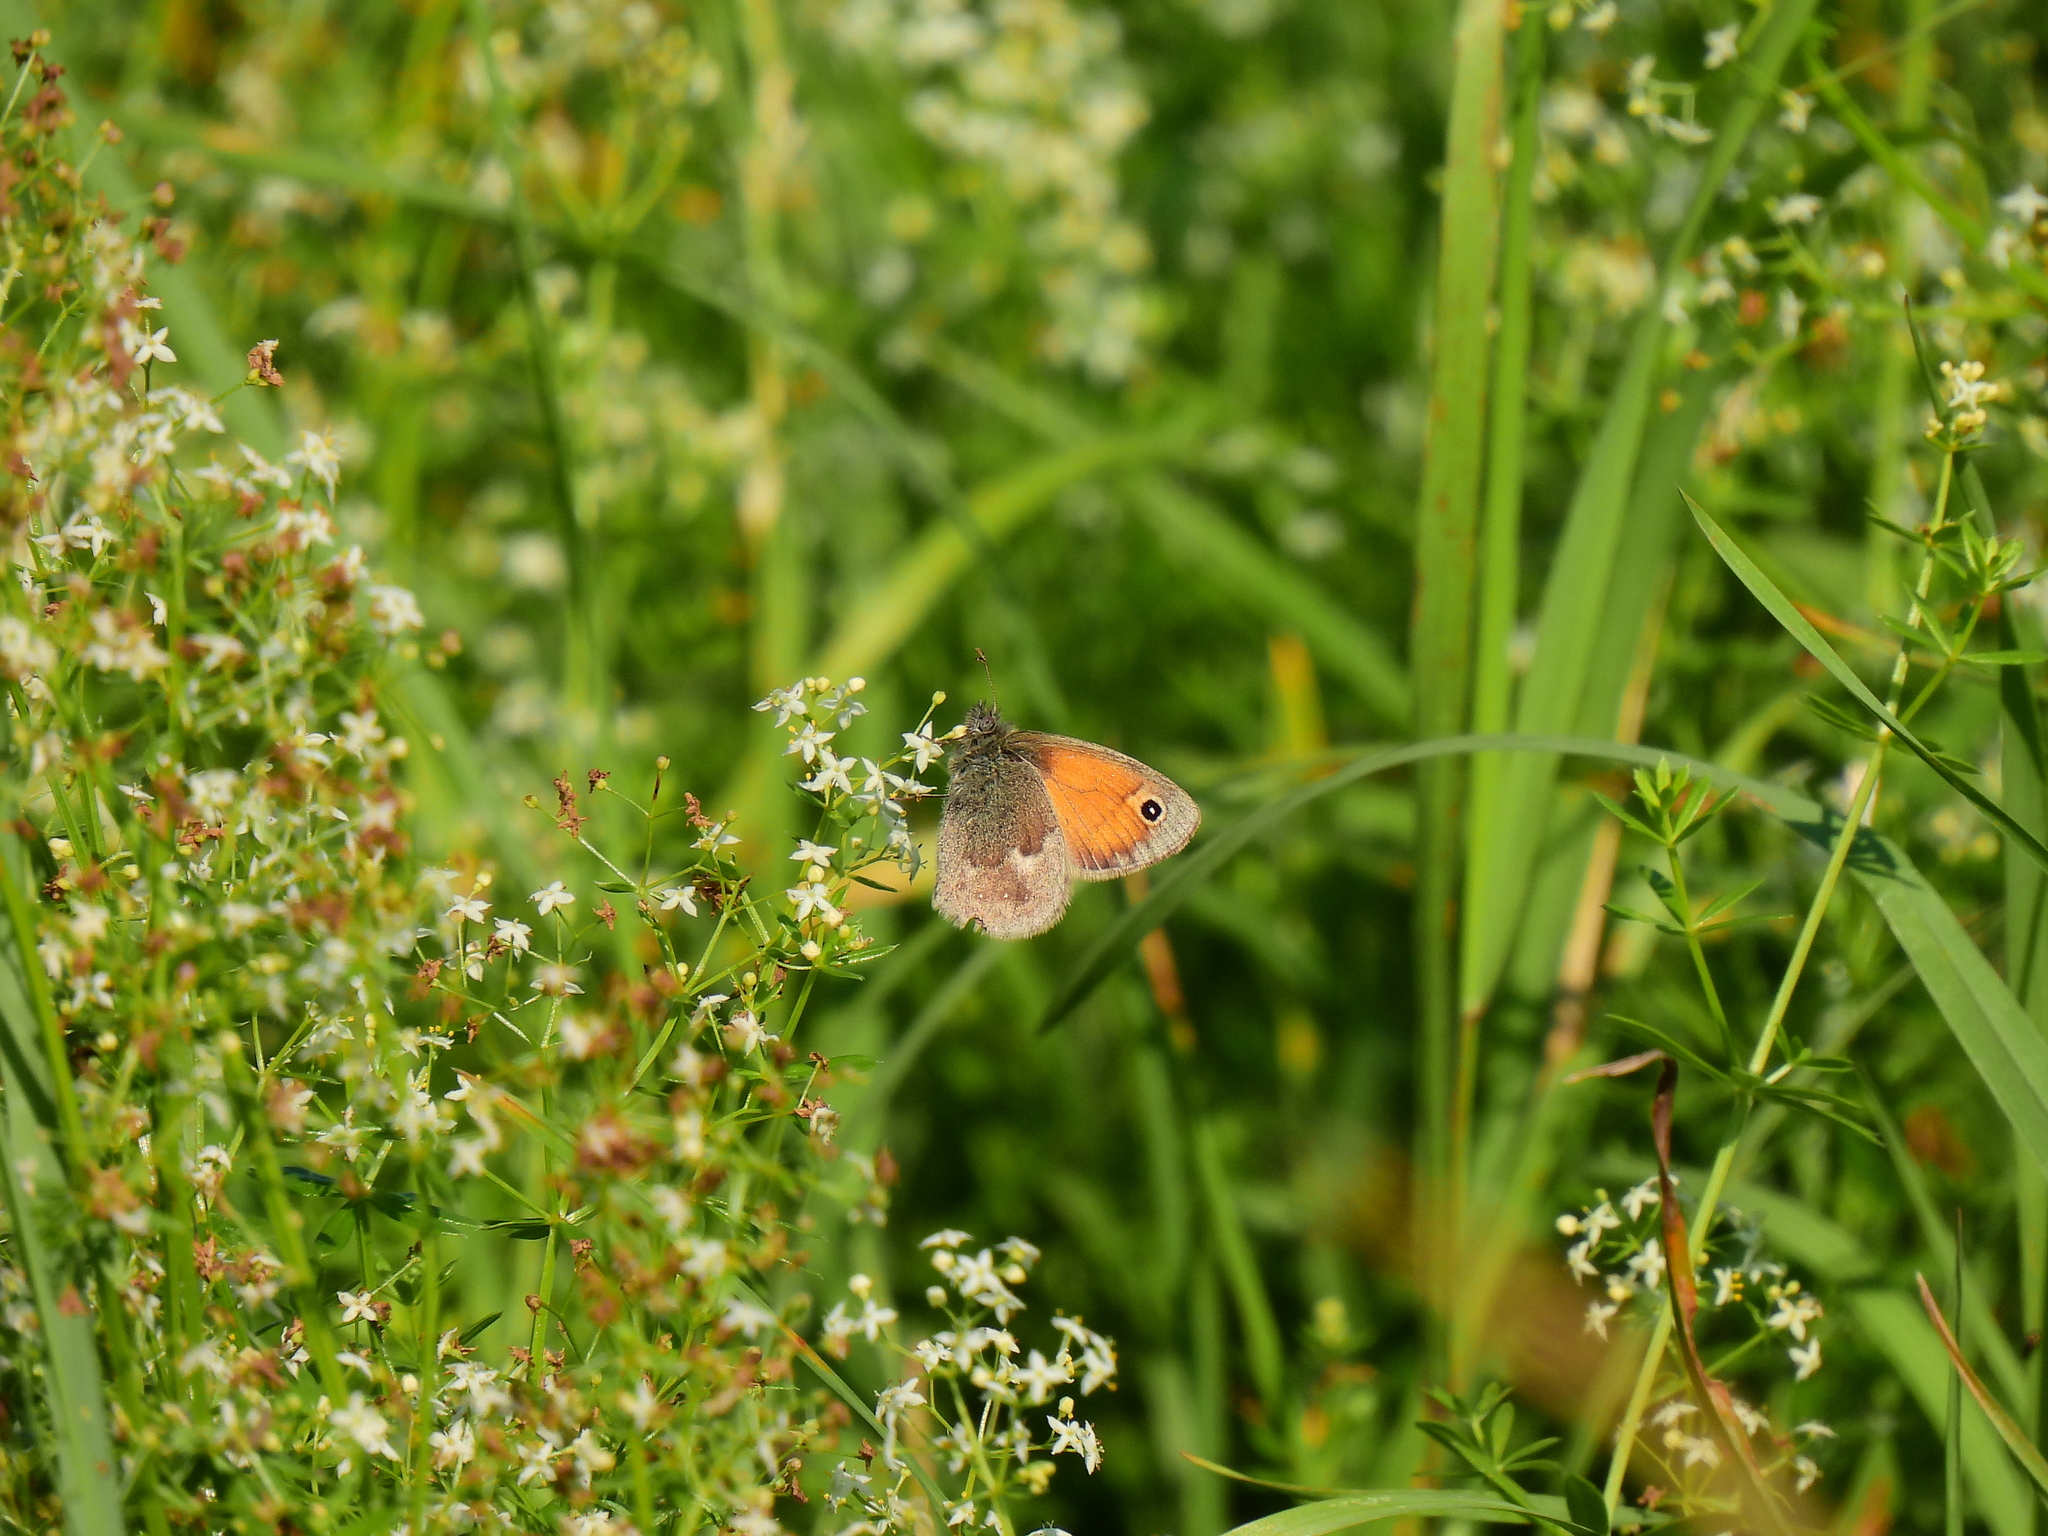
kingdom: Animalia
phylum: Arthropoda
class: Insecta
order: Lepidoptera
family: Nymphalidae
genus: Coenonympha
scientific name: Coenonympha pamphilus
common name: Small heath
